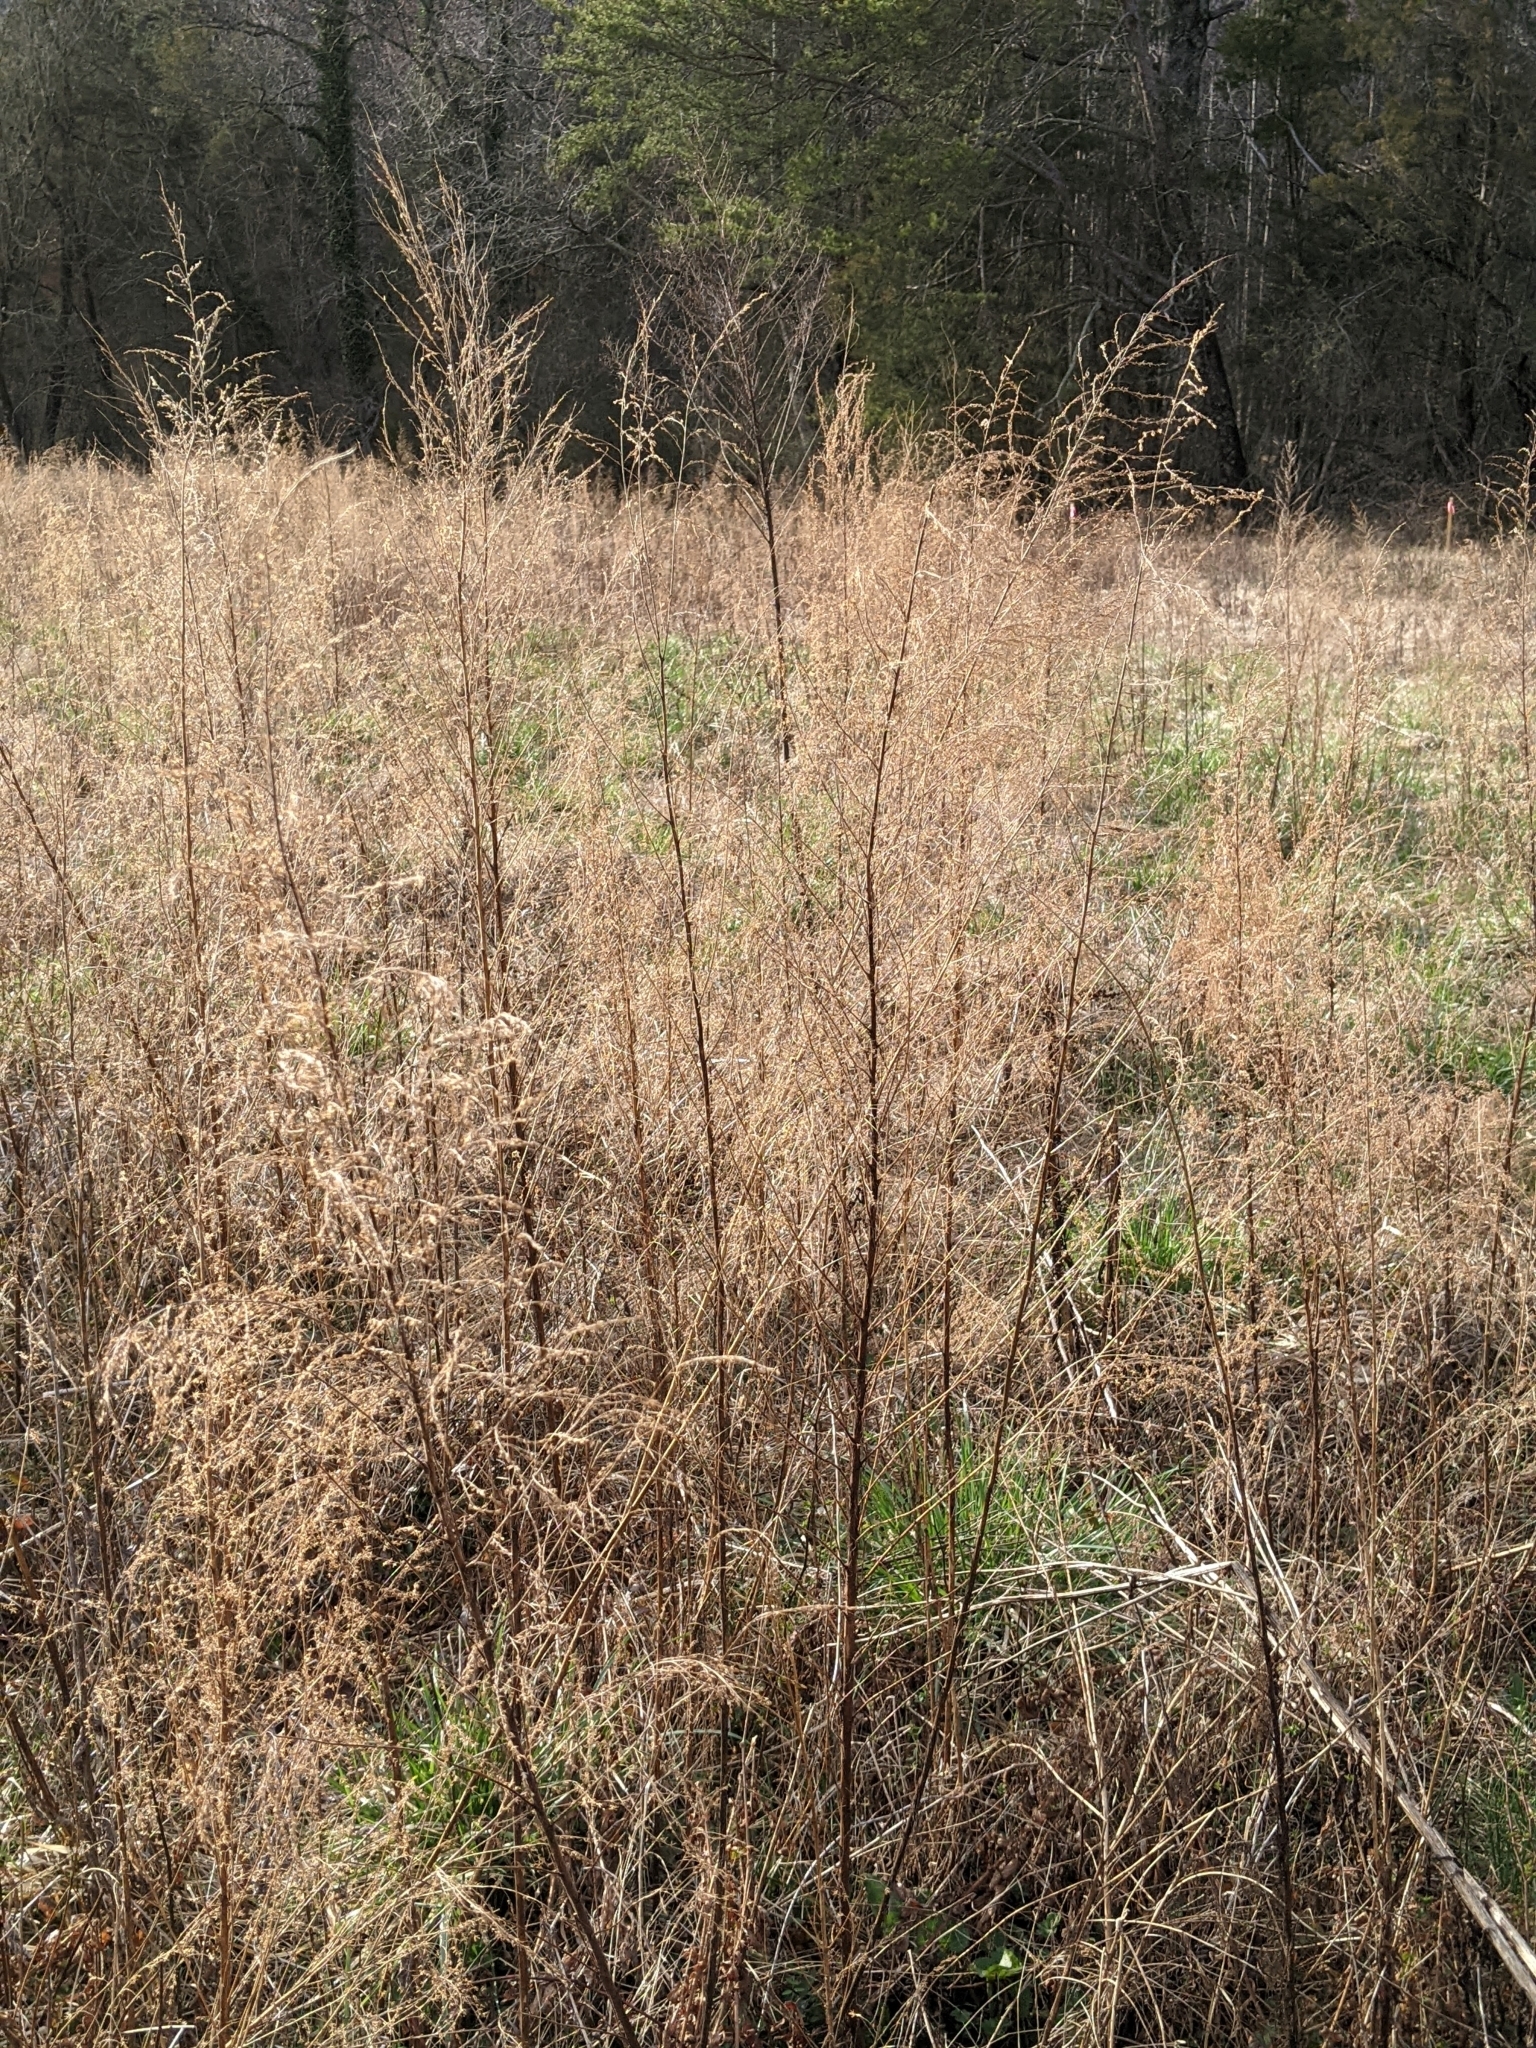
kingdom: Plantae
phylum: Tracheophyta
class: Magnoliopsida
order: Asterales
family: Asteraceae
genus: Eupatorium
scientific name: Eupatorium capillifolium
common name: Dog-fennel
